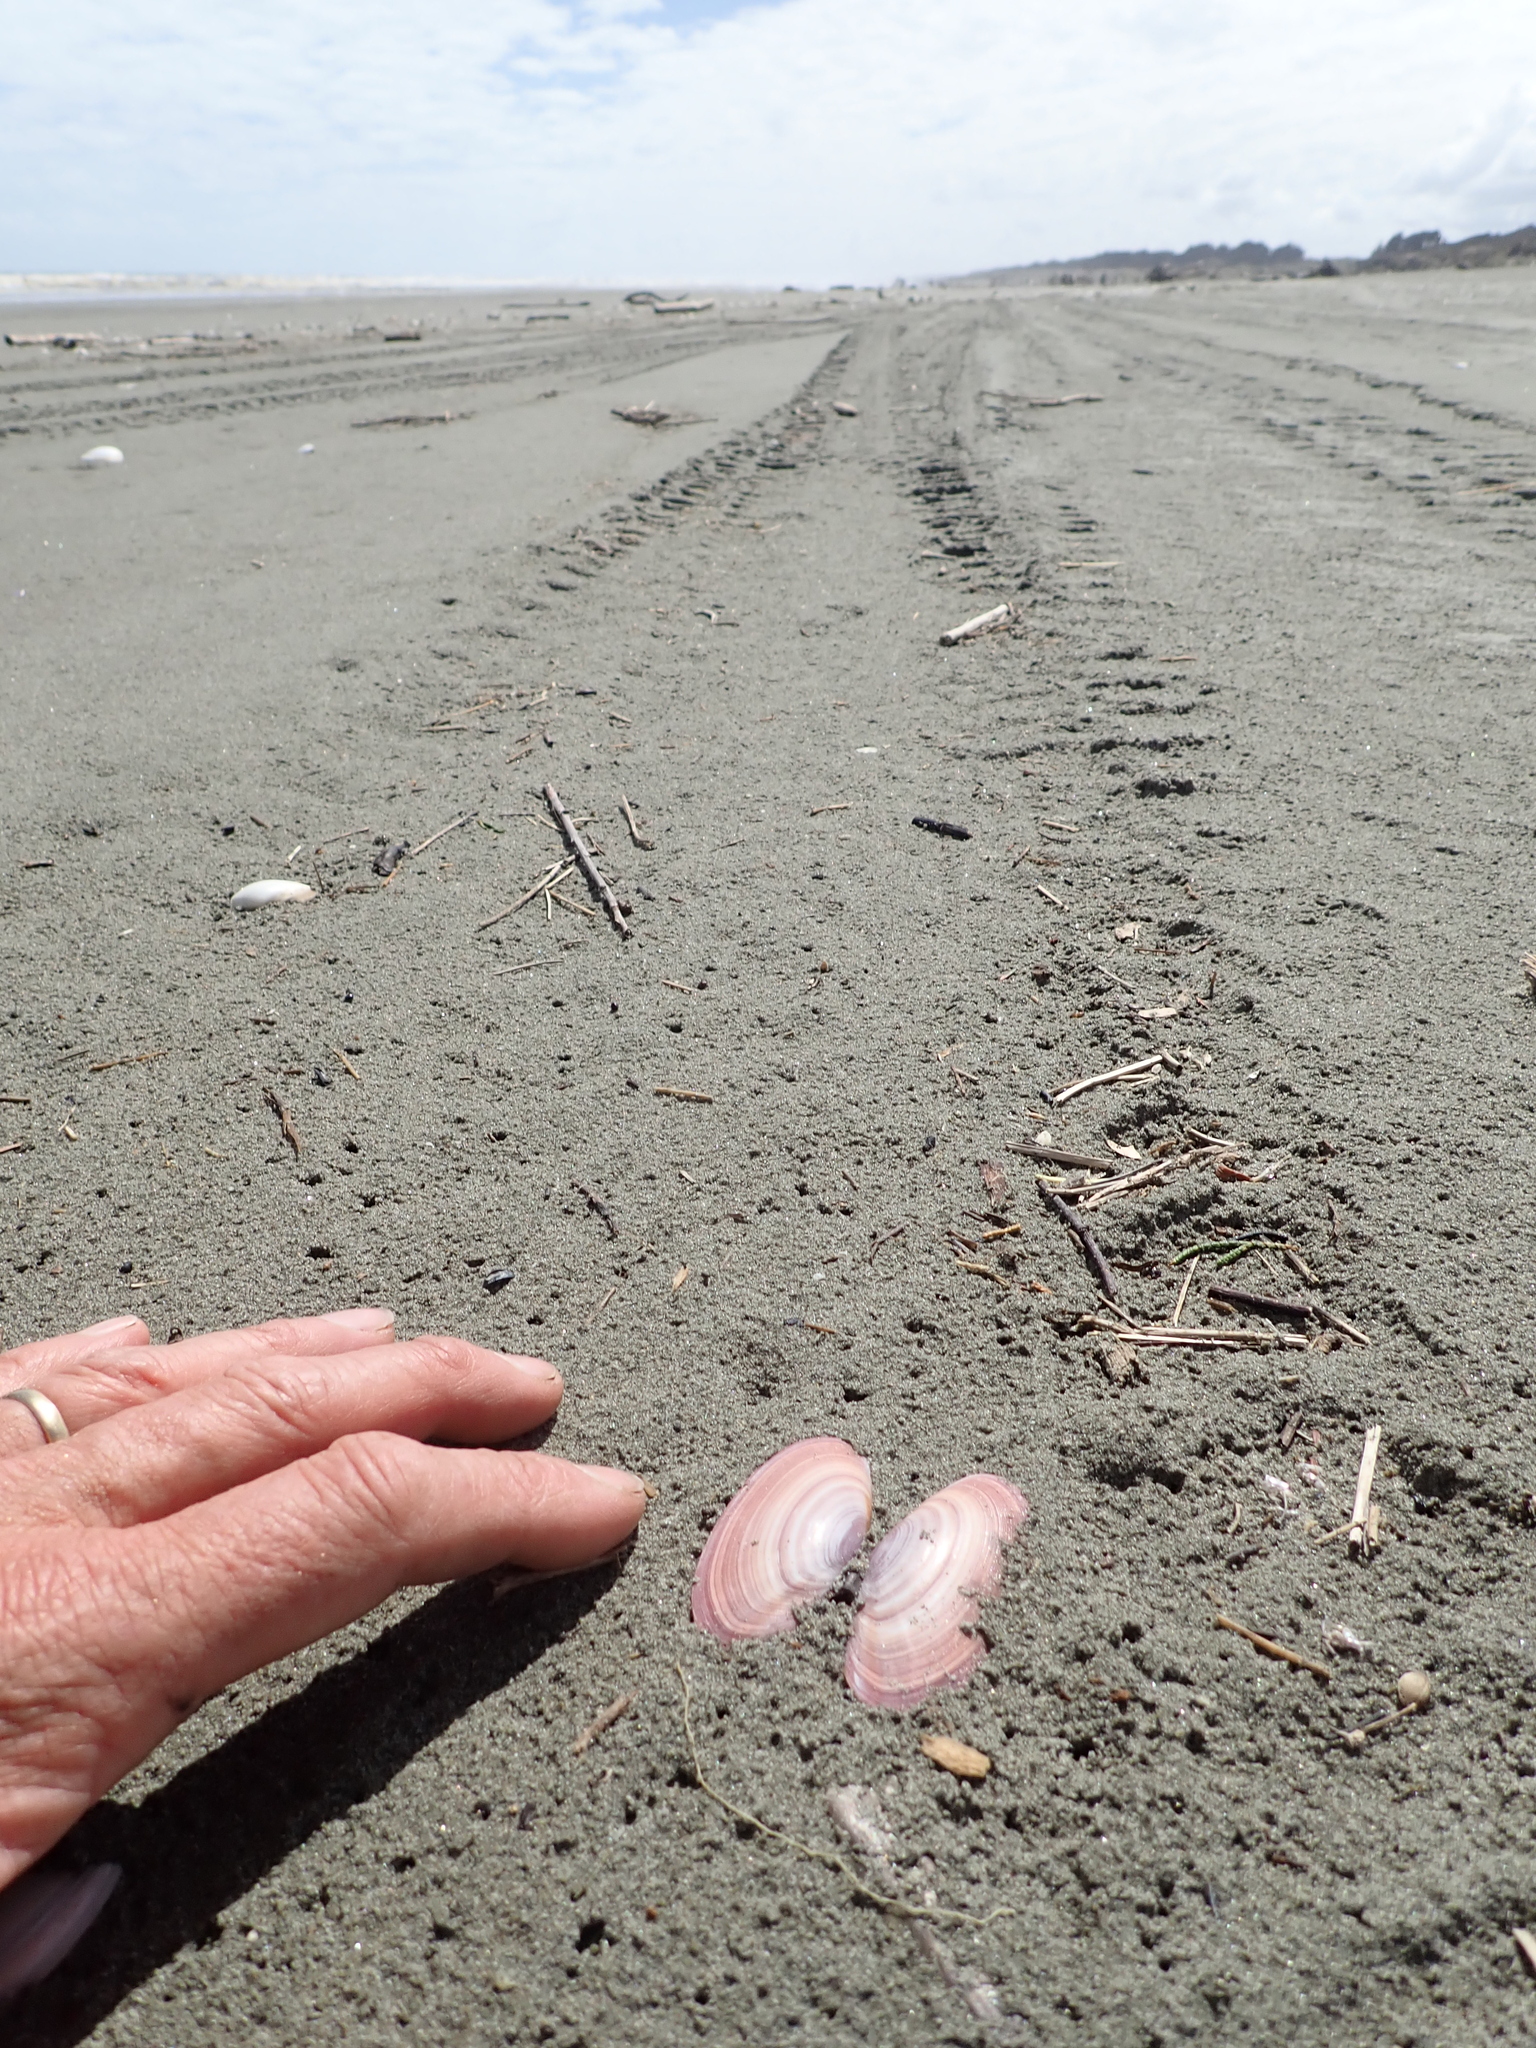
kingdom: Animalia
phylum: Mollusca
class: Bivalvia
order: Cardiida
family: Psammobiidae
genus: Gari
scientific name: Gari lineolata
